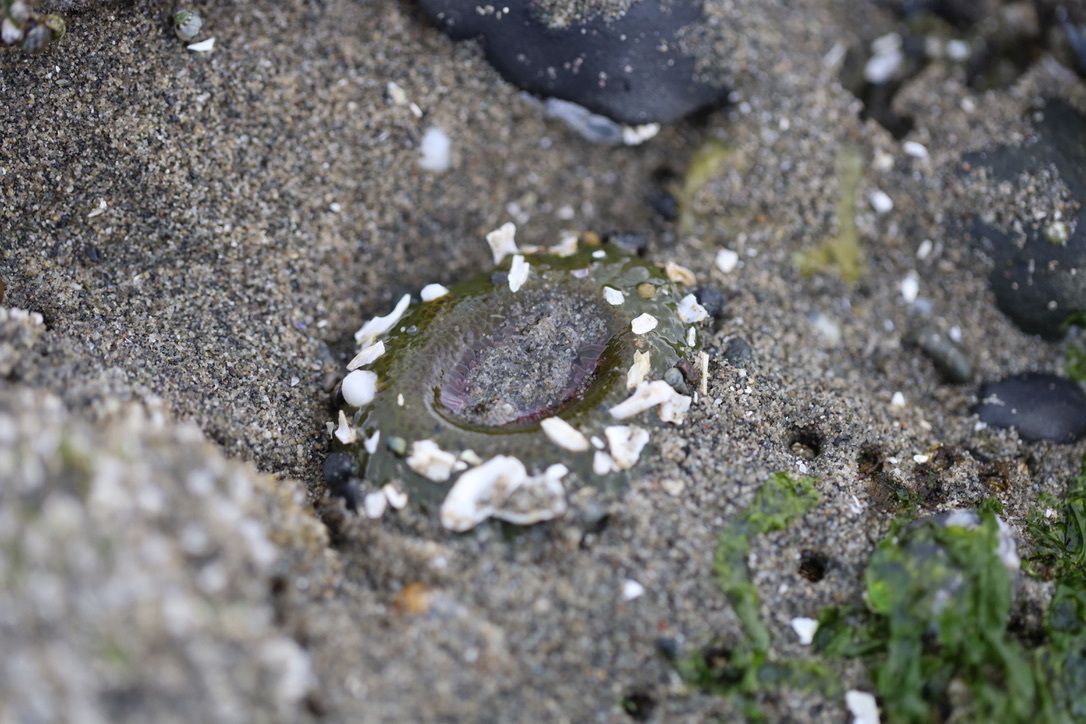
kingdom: Animalia
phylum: Cnidaria
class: Anthozoa
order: Actiniaria
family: Actiniidae
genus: Anthopleura
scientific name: Anthopleura elegantissima
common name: Clonal anemone
